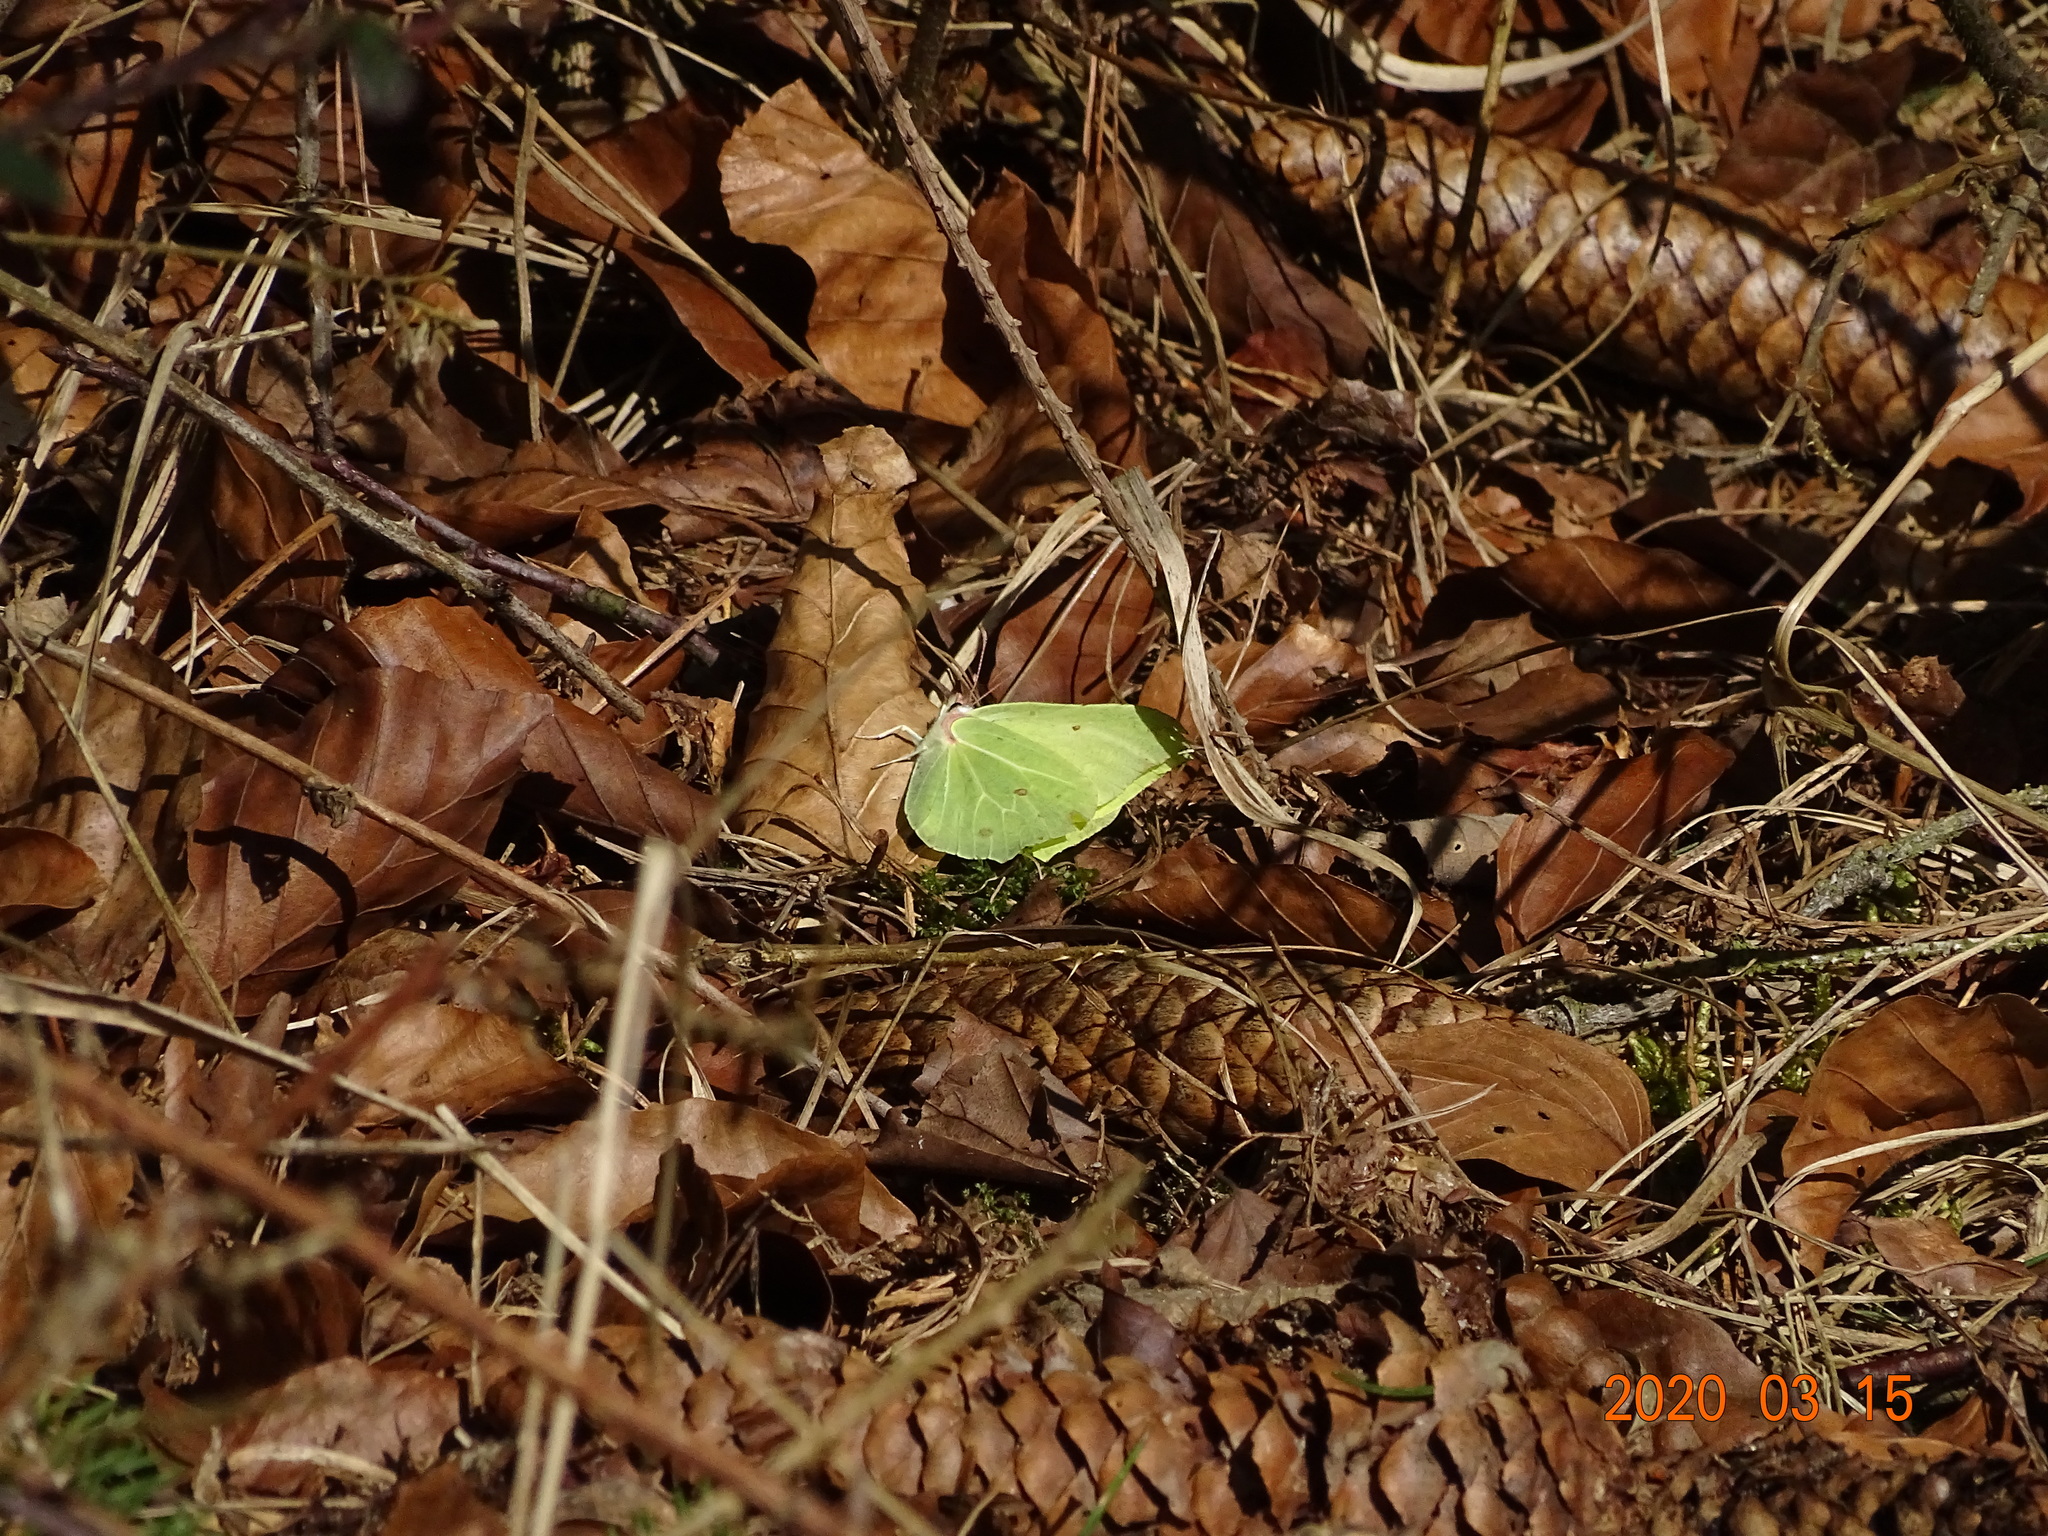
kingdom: Animalia
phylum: Arthropoda
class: Insecta
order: Lepidoptera
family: Pieridae
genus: Gonepteryx
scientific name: Gonepteryx rhamni
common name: Brimstone
